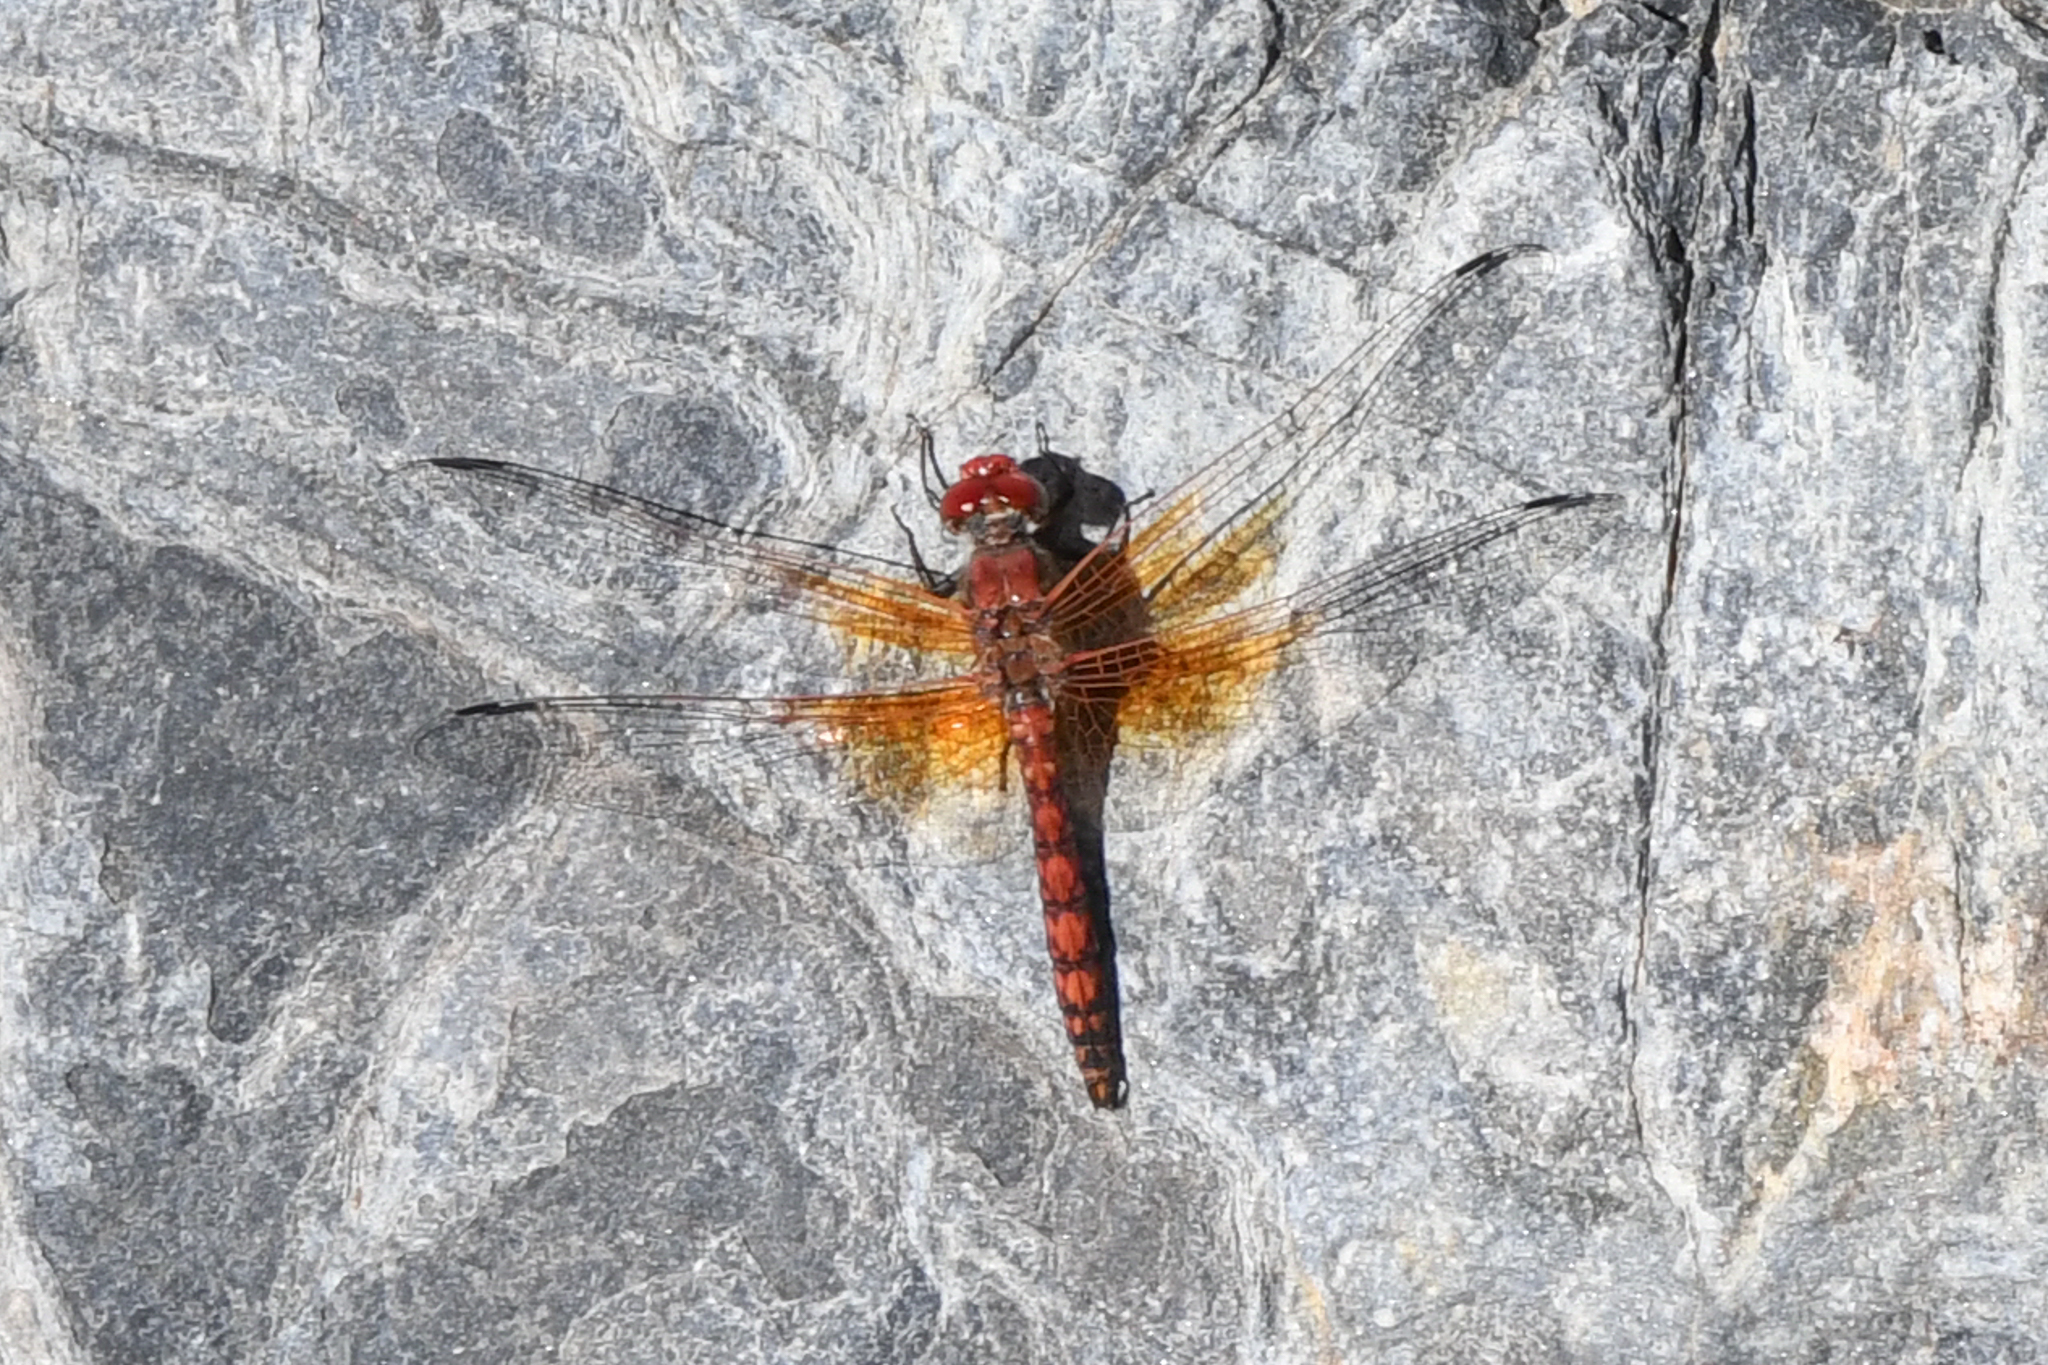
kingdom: Animalia
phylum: Arthropoda
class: Insecta
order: Odonata
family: Libellulidae
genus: Paltothemis
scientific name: Paltothemis lineatipes
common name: Red rock skimmer
